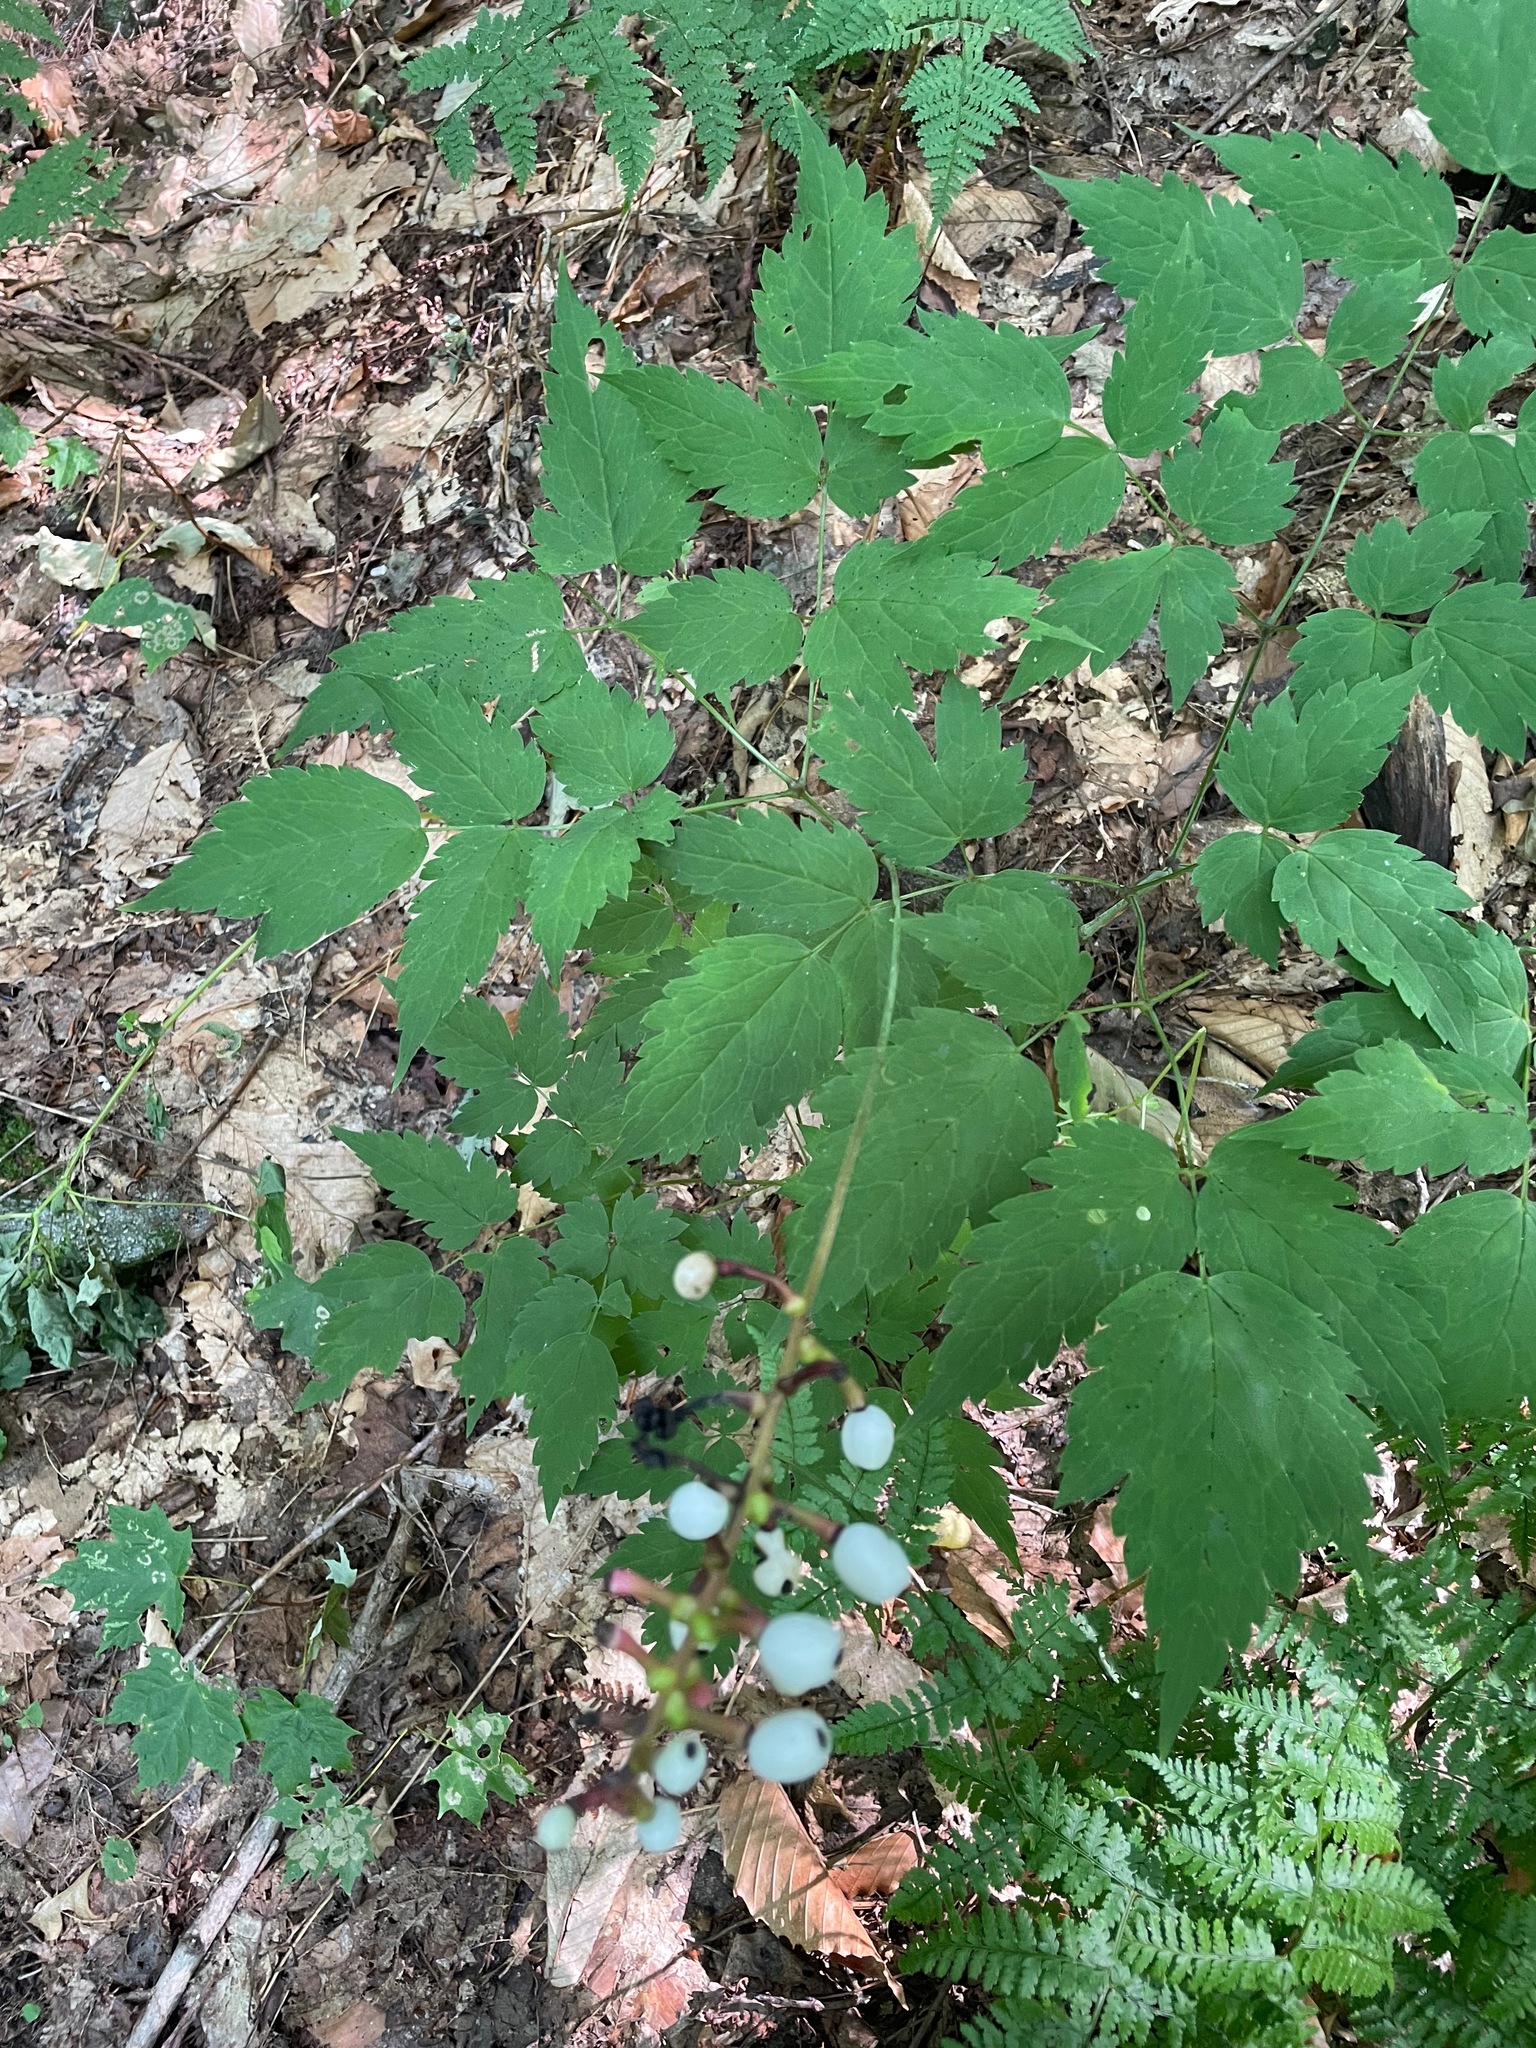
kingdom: Plantae
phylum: Tracheophyta
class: Magnoliopsida
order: Ranunculales
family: Ranunculaceae
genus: Actaea
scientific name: Actaea pachypoda
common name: Doll's-eyes
